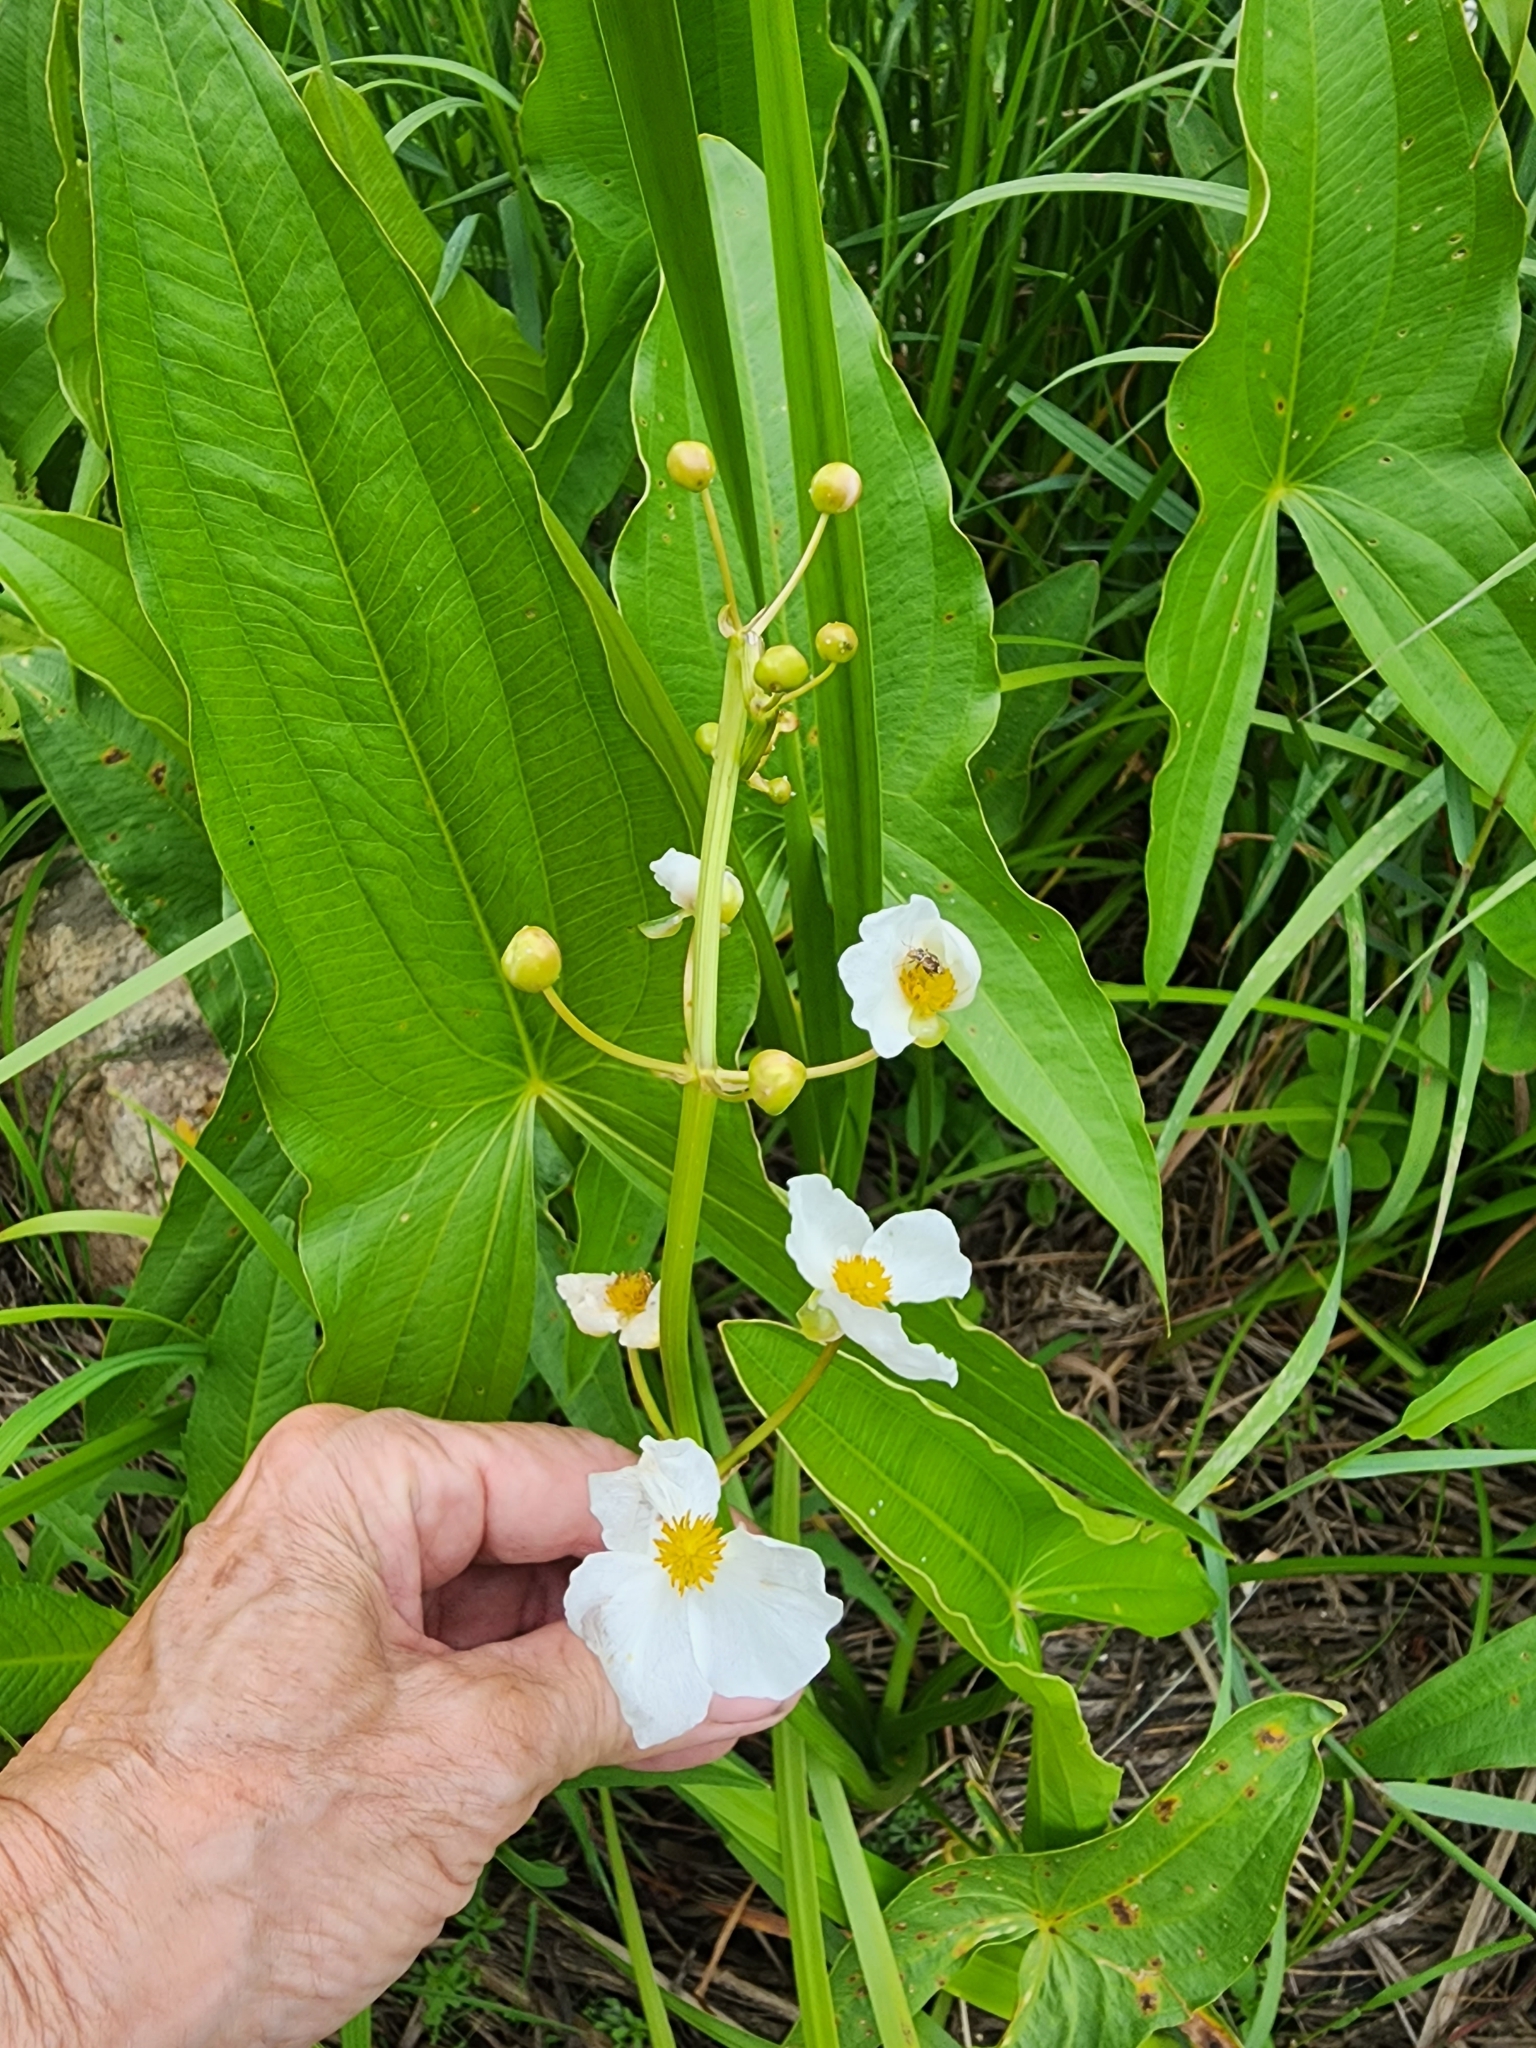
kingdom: Plantae
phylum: Tracheophyta
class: Liliopsida
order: Alismatales
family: Alismataceae
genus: Sagittaria
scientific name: Sagittaria latifolia
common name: Duck-potato
